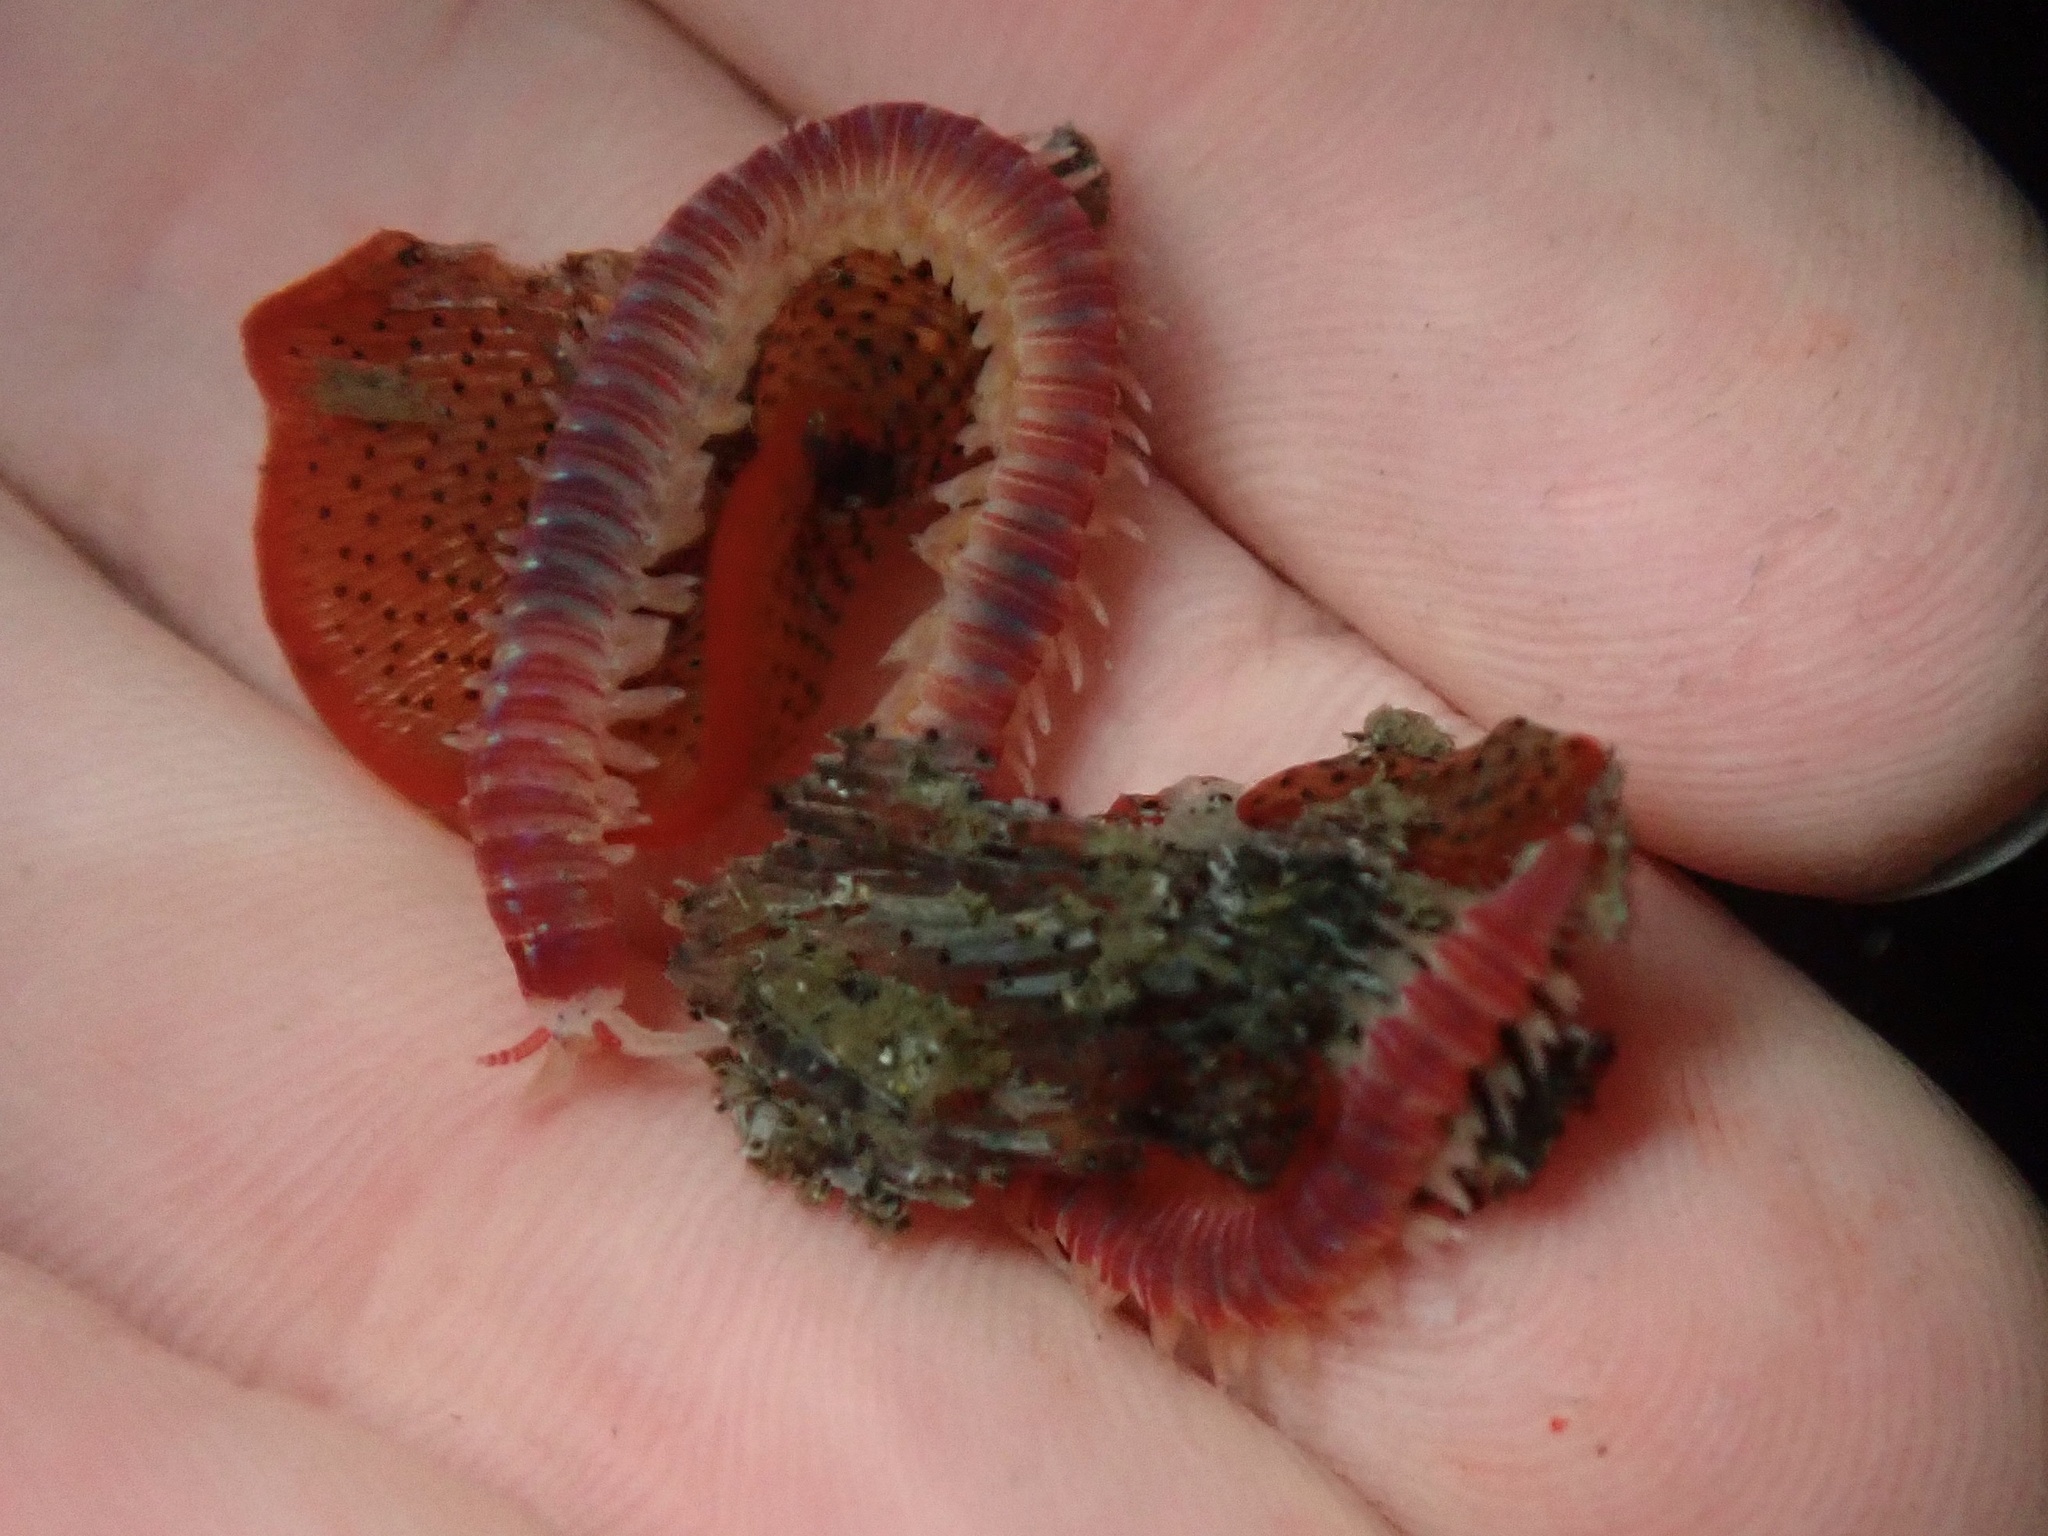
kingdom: Animalia
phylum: Annelida
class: Polychaeta
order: Eunicida
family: Dorvilleidae
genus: Dorvillea
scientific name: Dorvillea moniloceras
